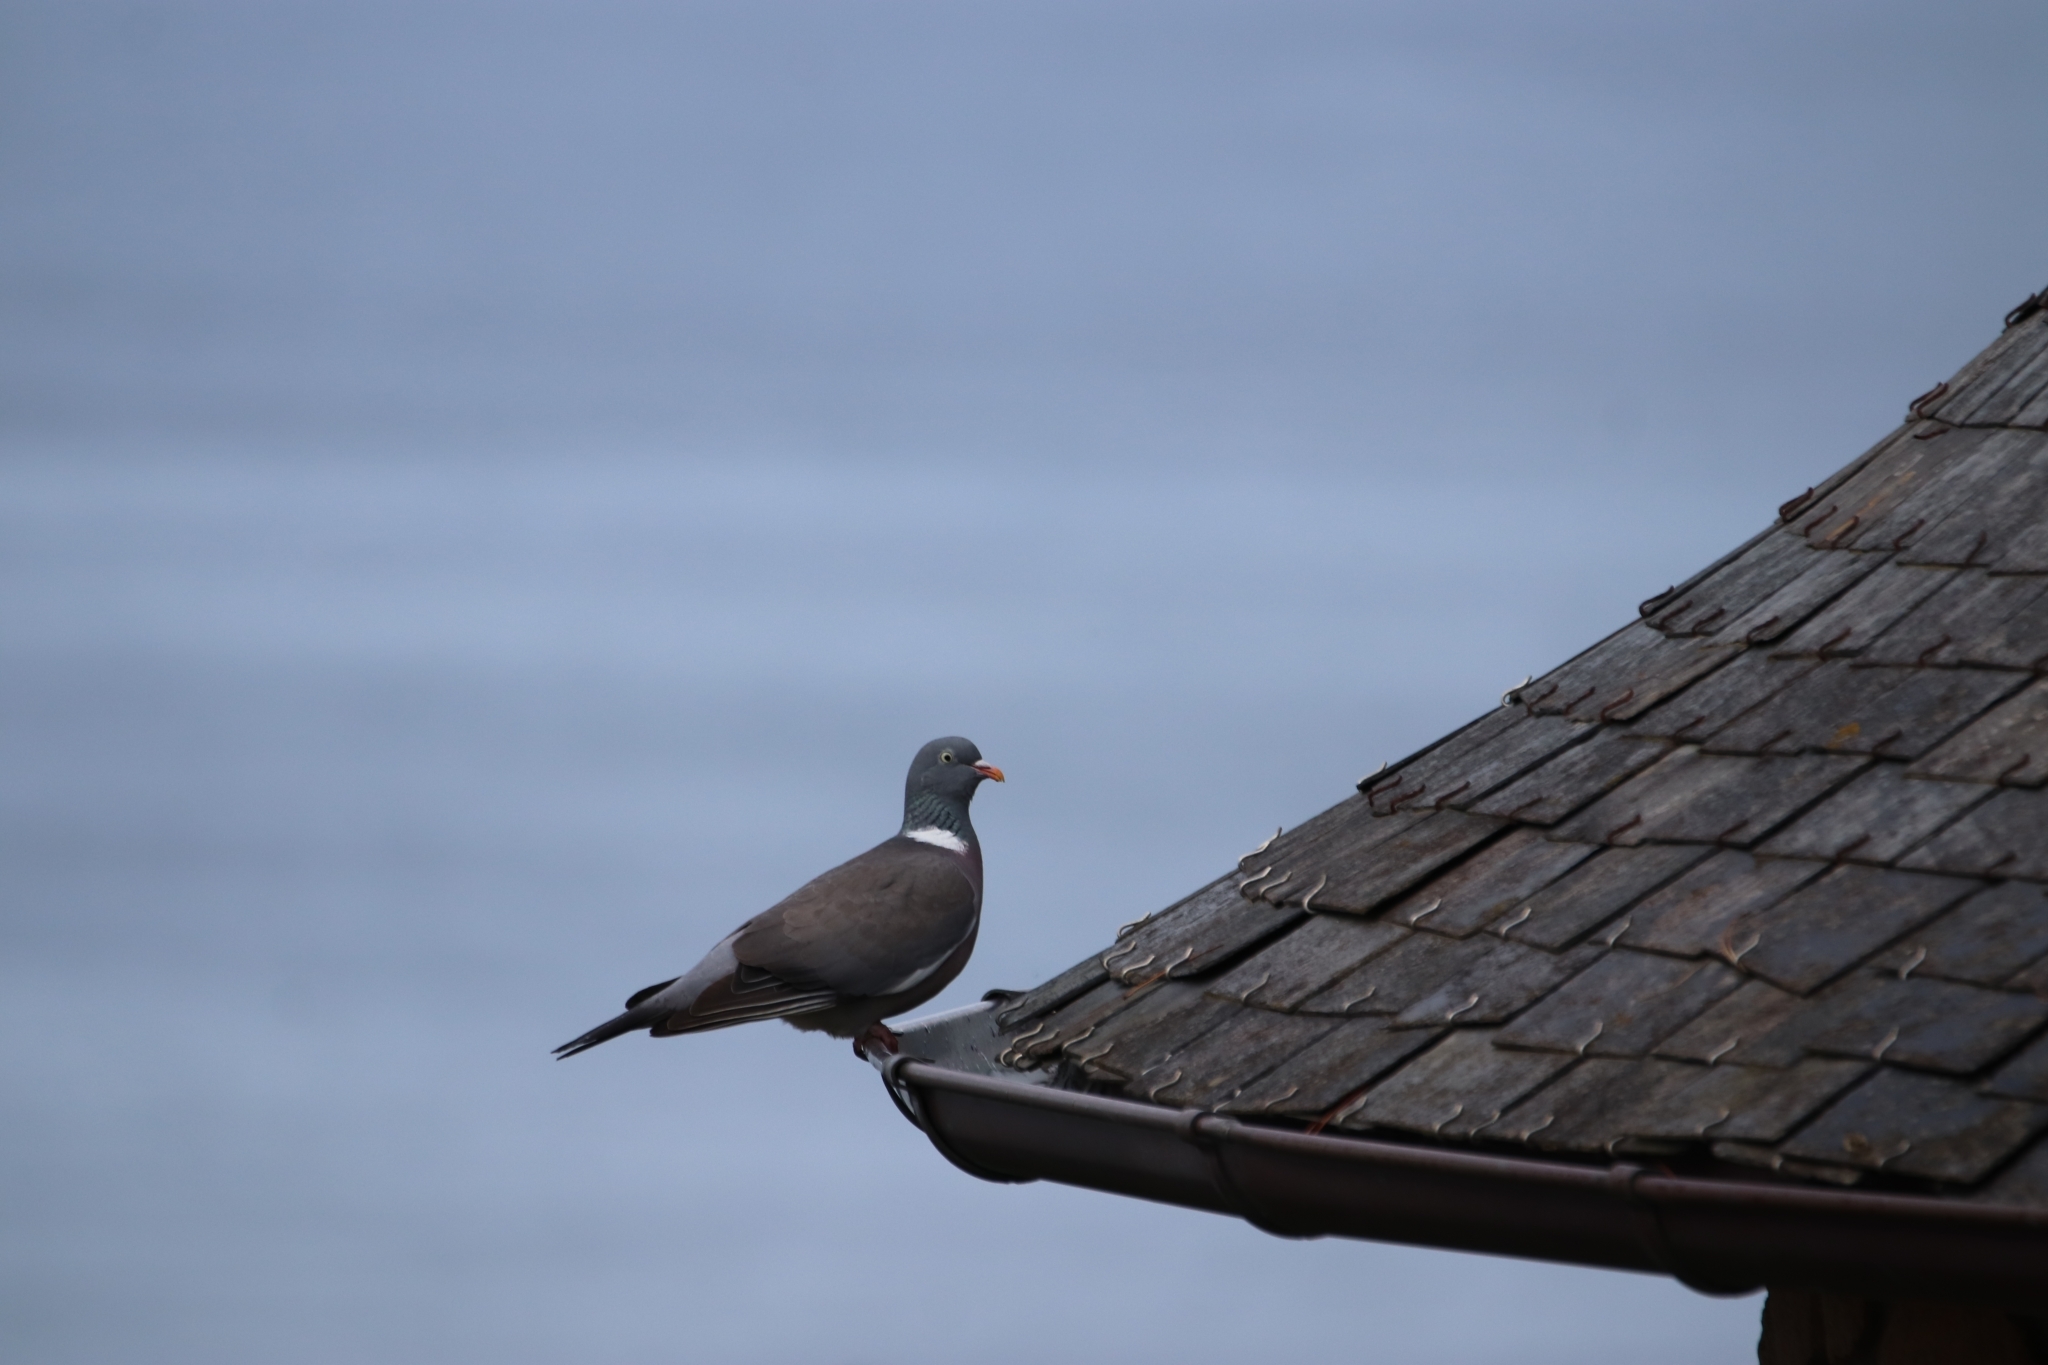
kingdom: Animalia
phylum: Chordata
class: Aves
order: Columbiformes
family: Columbidae
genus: Columba
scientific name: Columba palumbus
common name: Common wood pigeon
